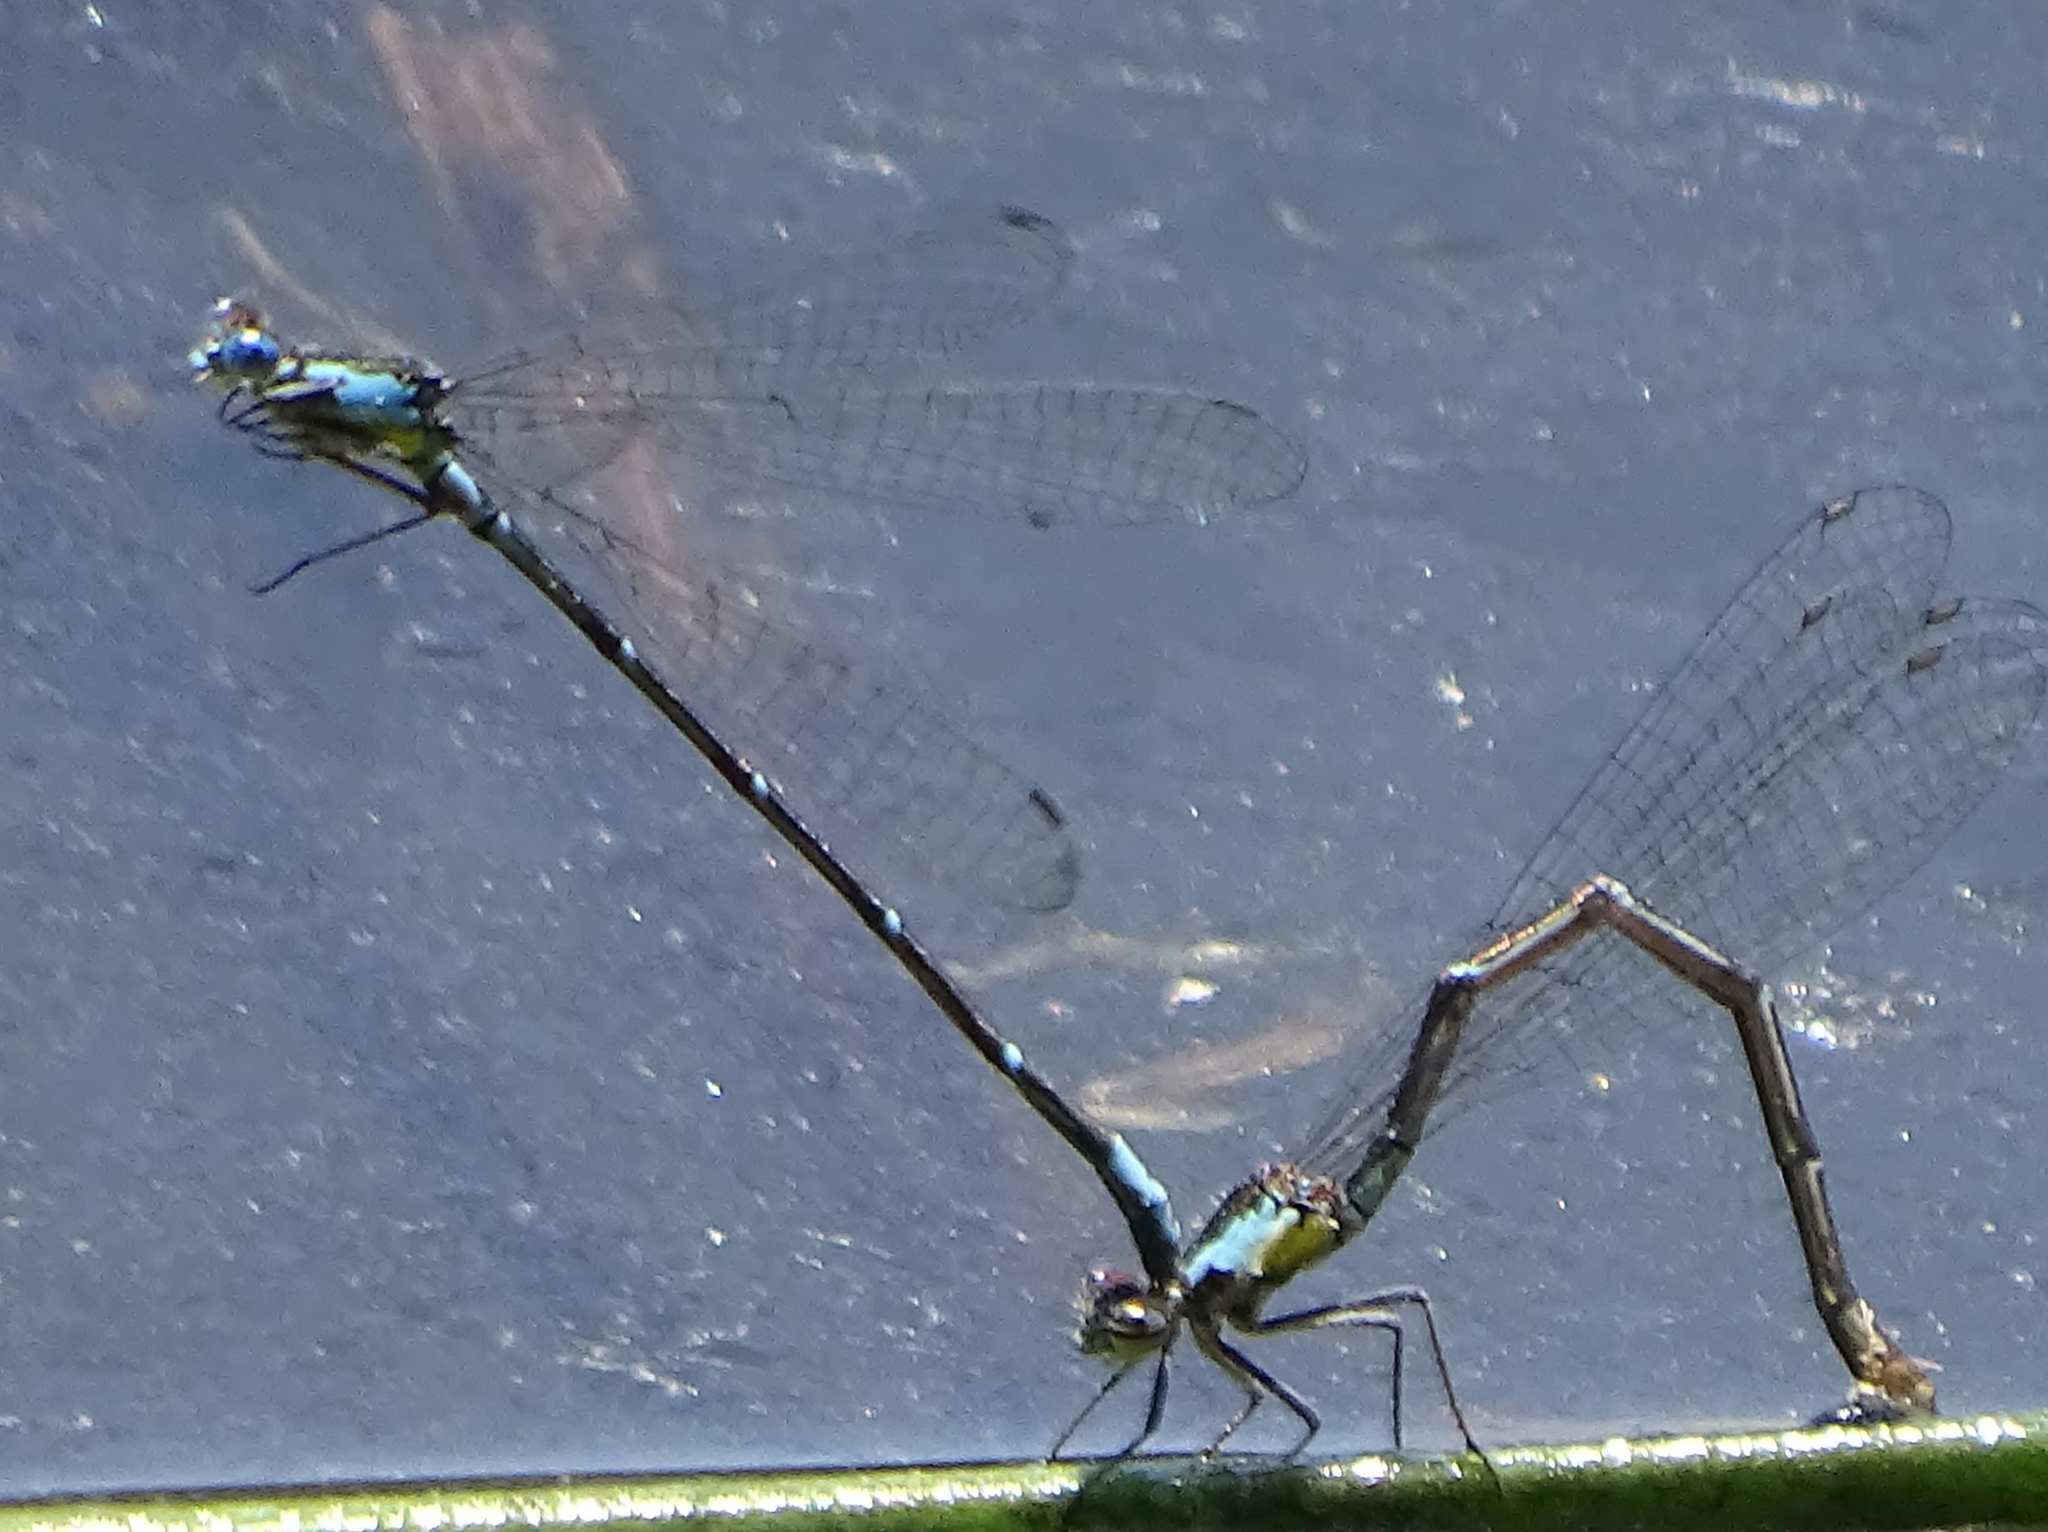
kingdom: Animalia
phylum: Arthropoda
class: Insecta
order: Odonata
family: Coenagrionidae
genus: Chromagrion
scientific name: Chromagrion conditum
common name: Aurora damsel
